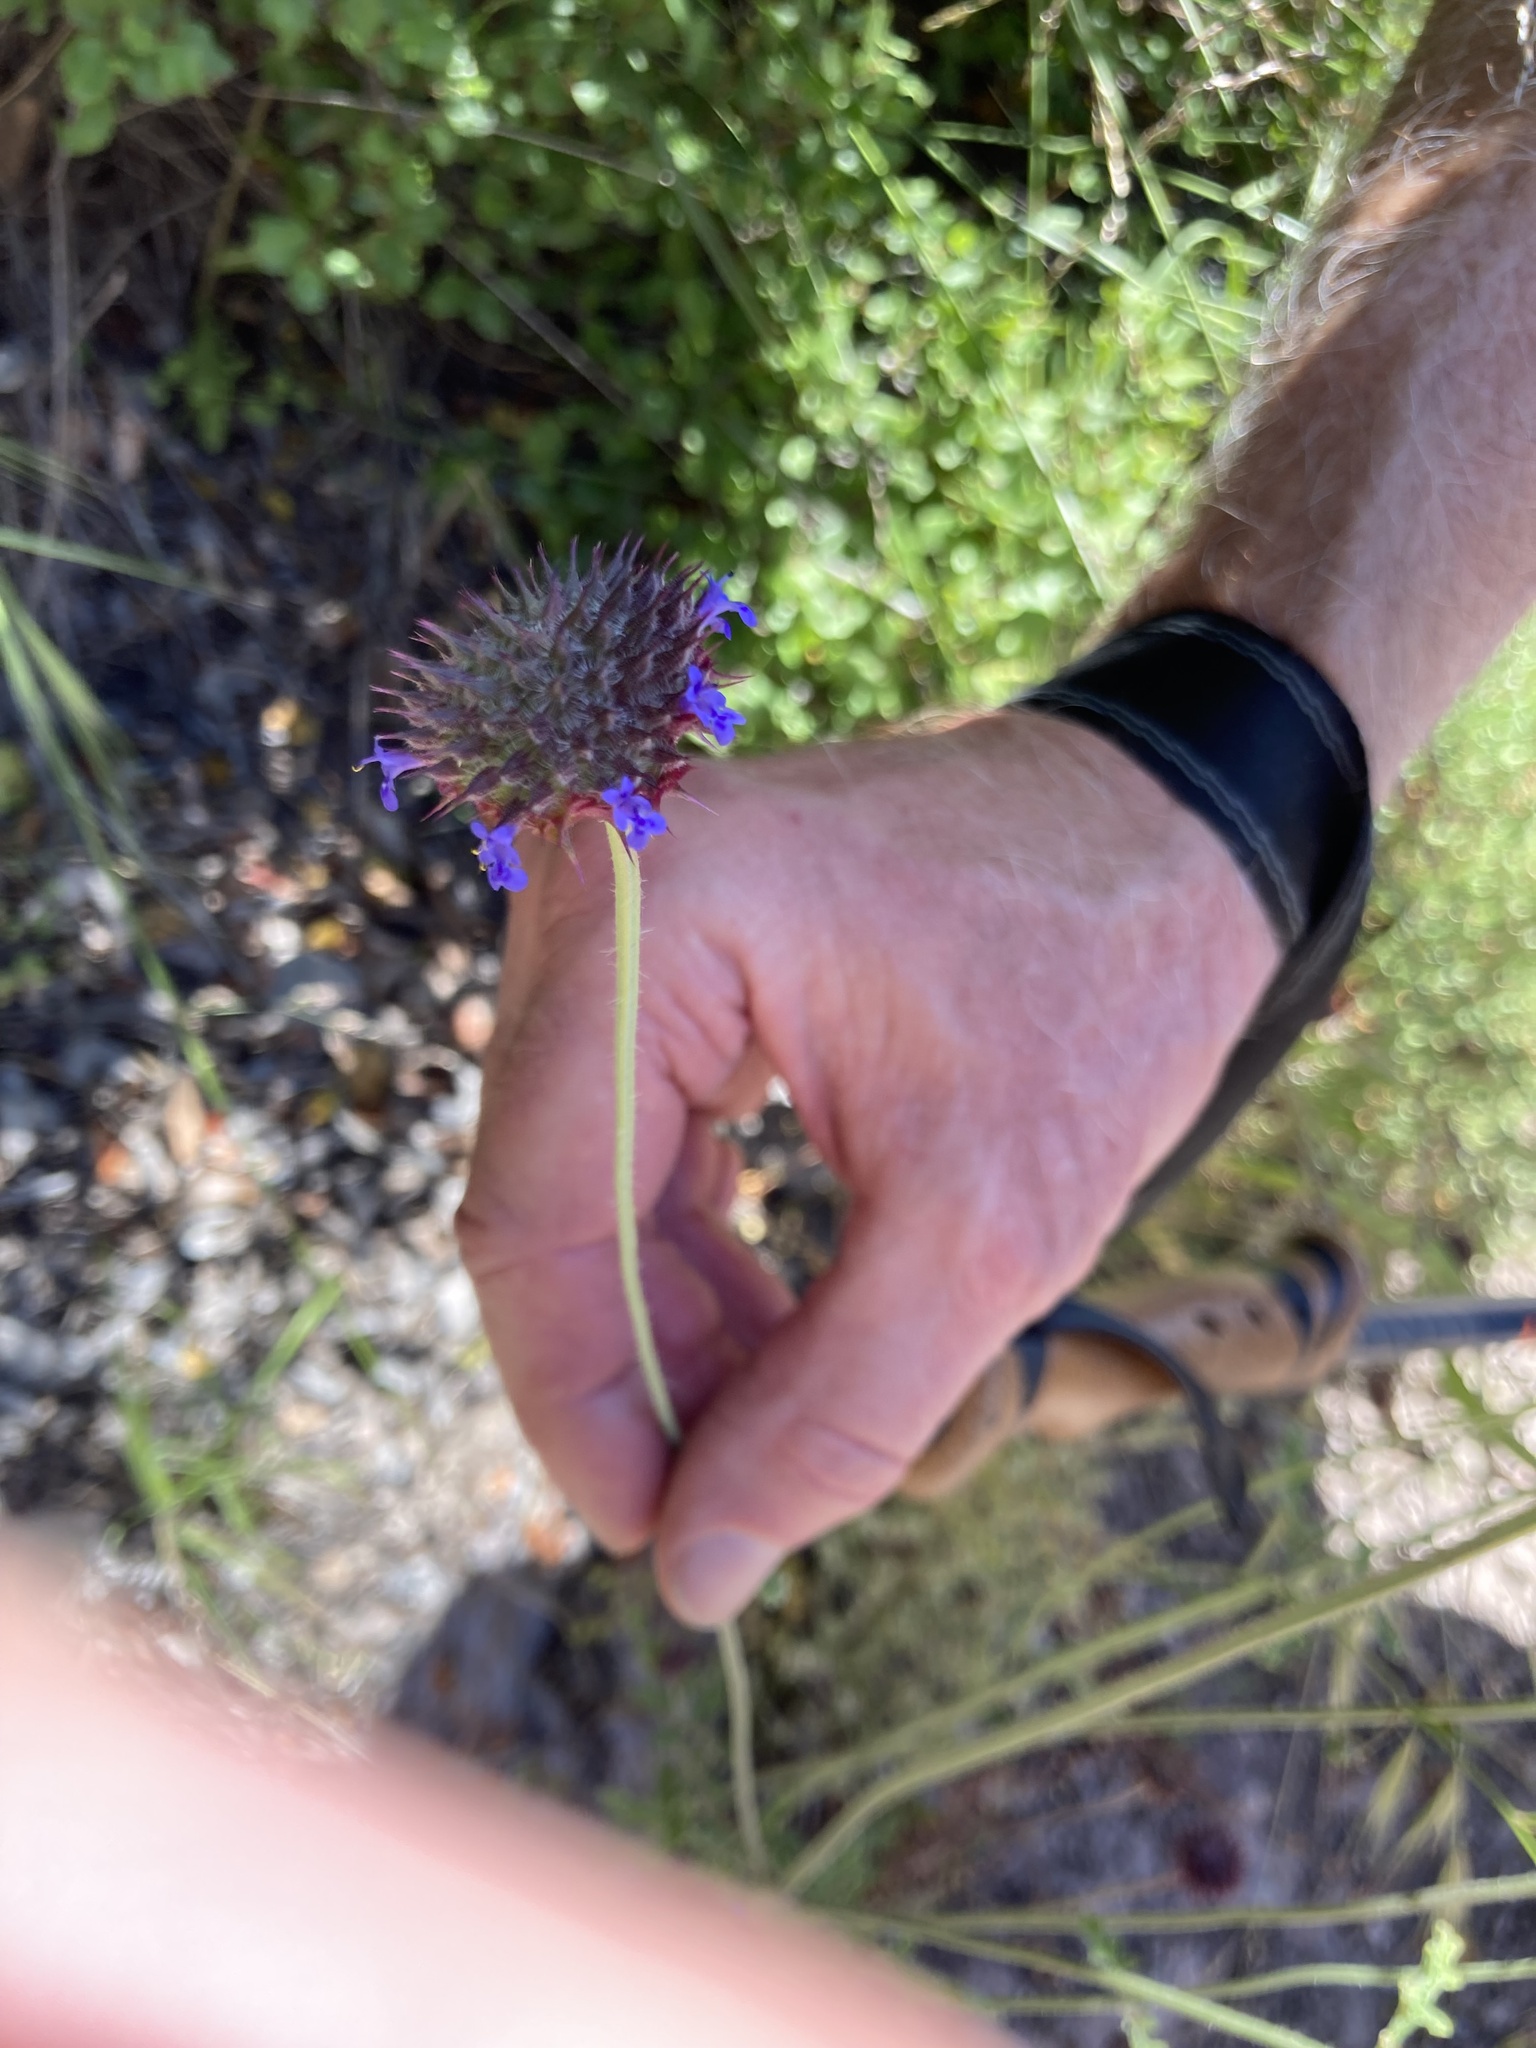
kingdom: Plantae
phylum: Tracheophyta
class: Magnoliopsida
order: Lamiales
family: Lamiaceae
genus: Salvia
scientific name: Salvia columbariae
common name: Chia
